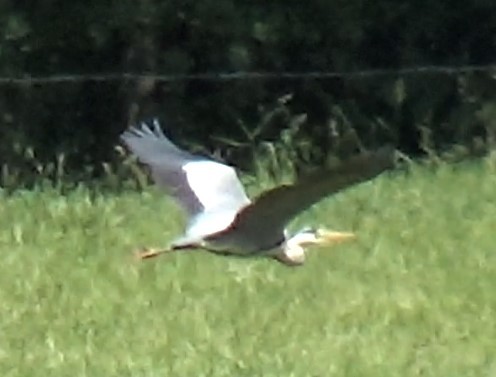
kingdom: Animalia
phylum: Chordata
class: Aves
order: Pelecaniformes
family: Ardeidae
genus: Ardea
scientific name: Ardea cinerea
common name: Grey heron
